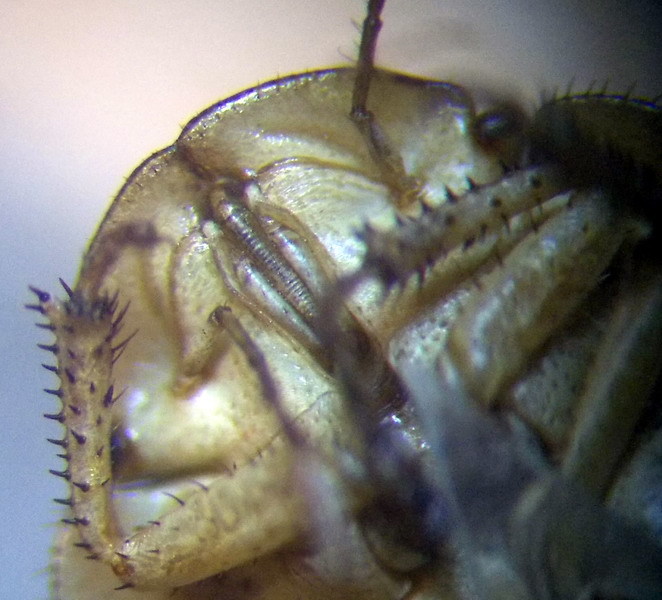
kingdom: Animalia
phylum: Arthropoda
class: Insecta
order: Hemiptera
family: Pentatomidae
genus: Menaccarus
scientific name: Menaccarus arenicola
